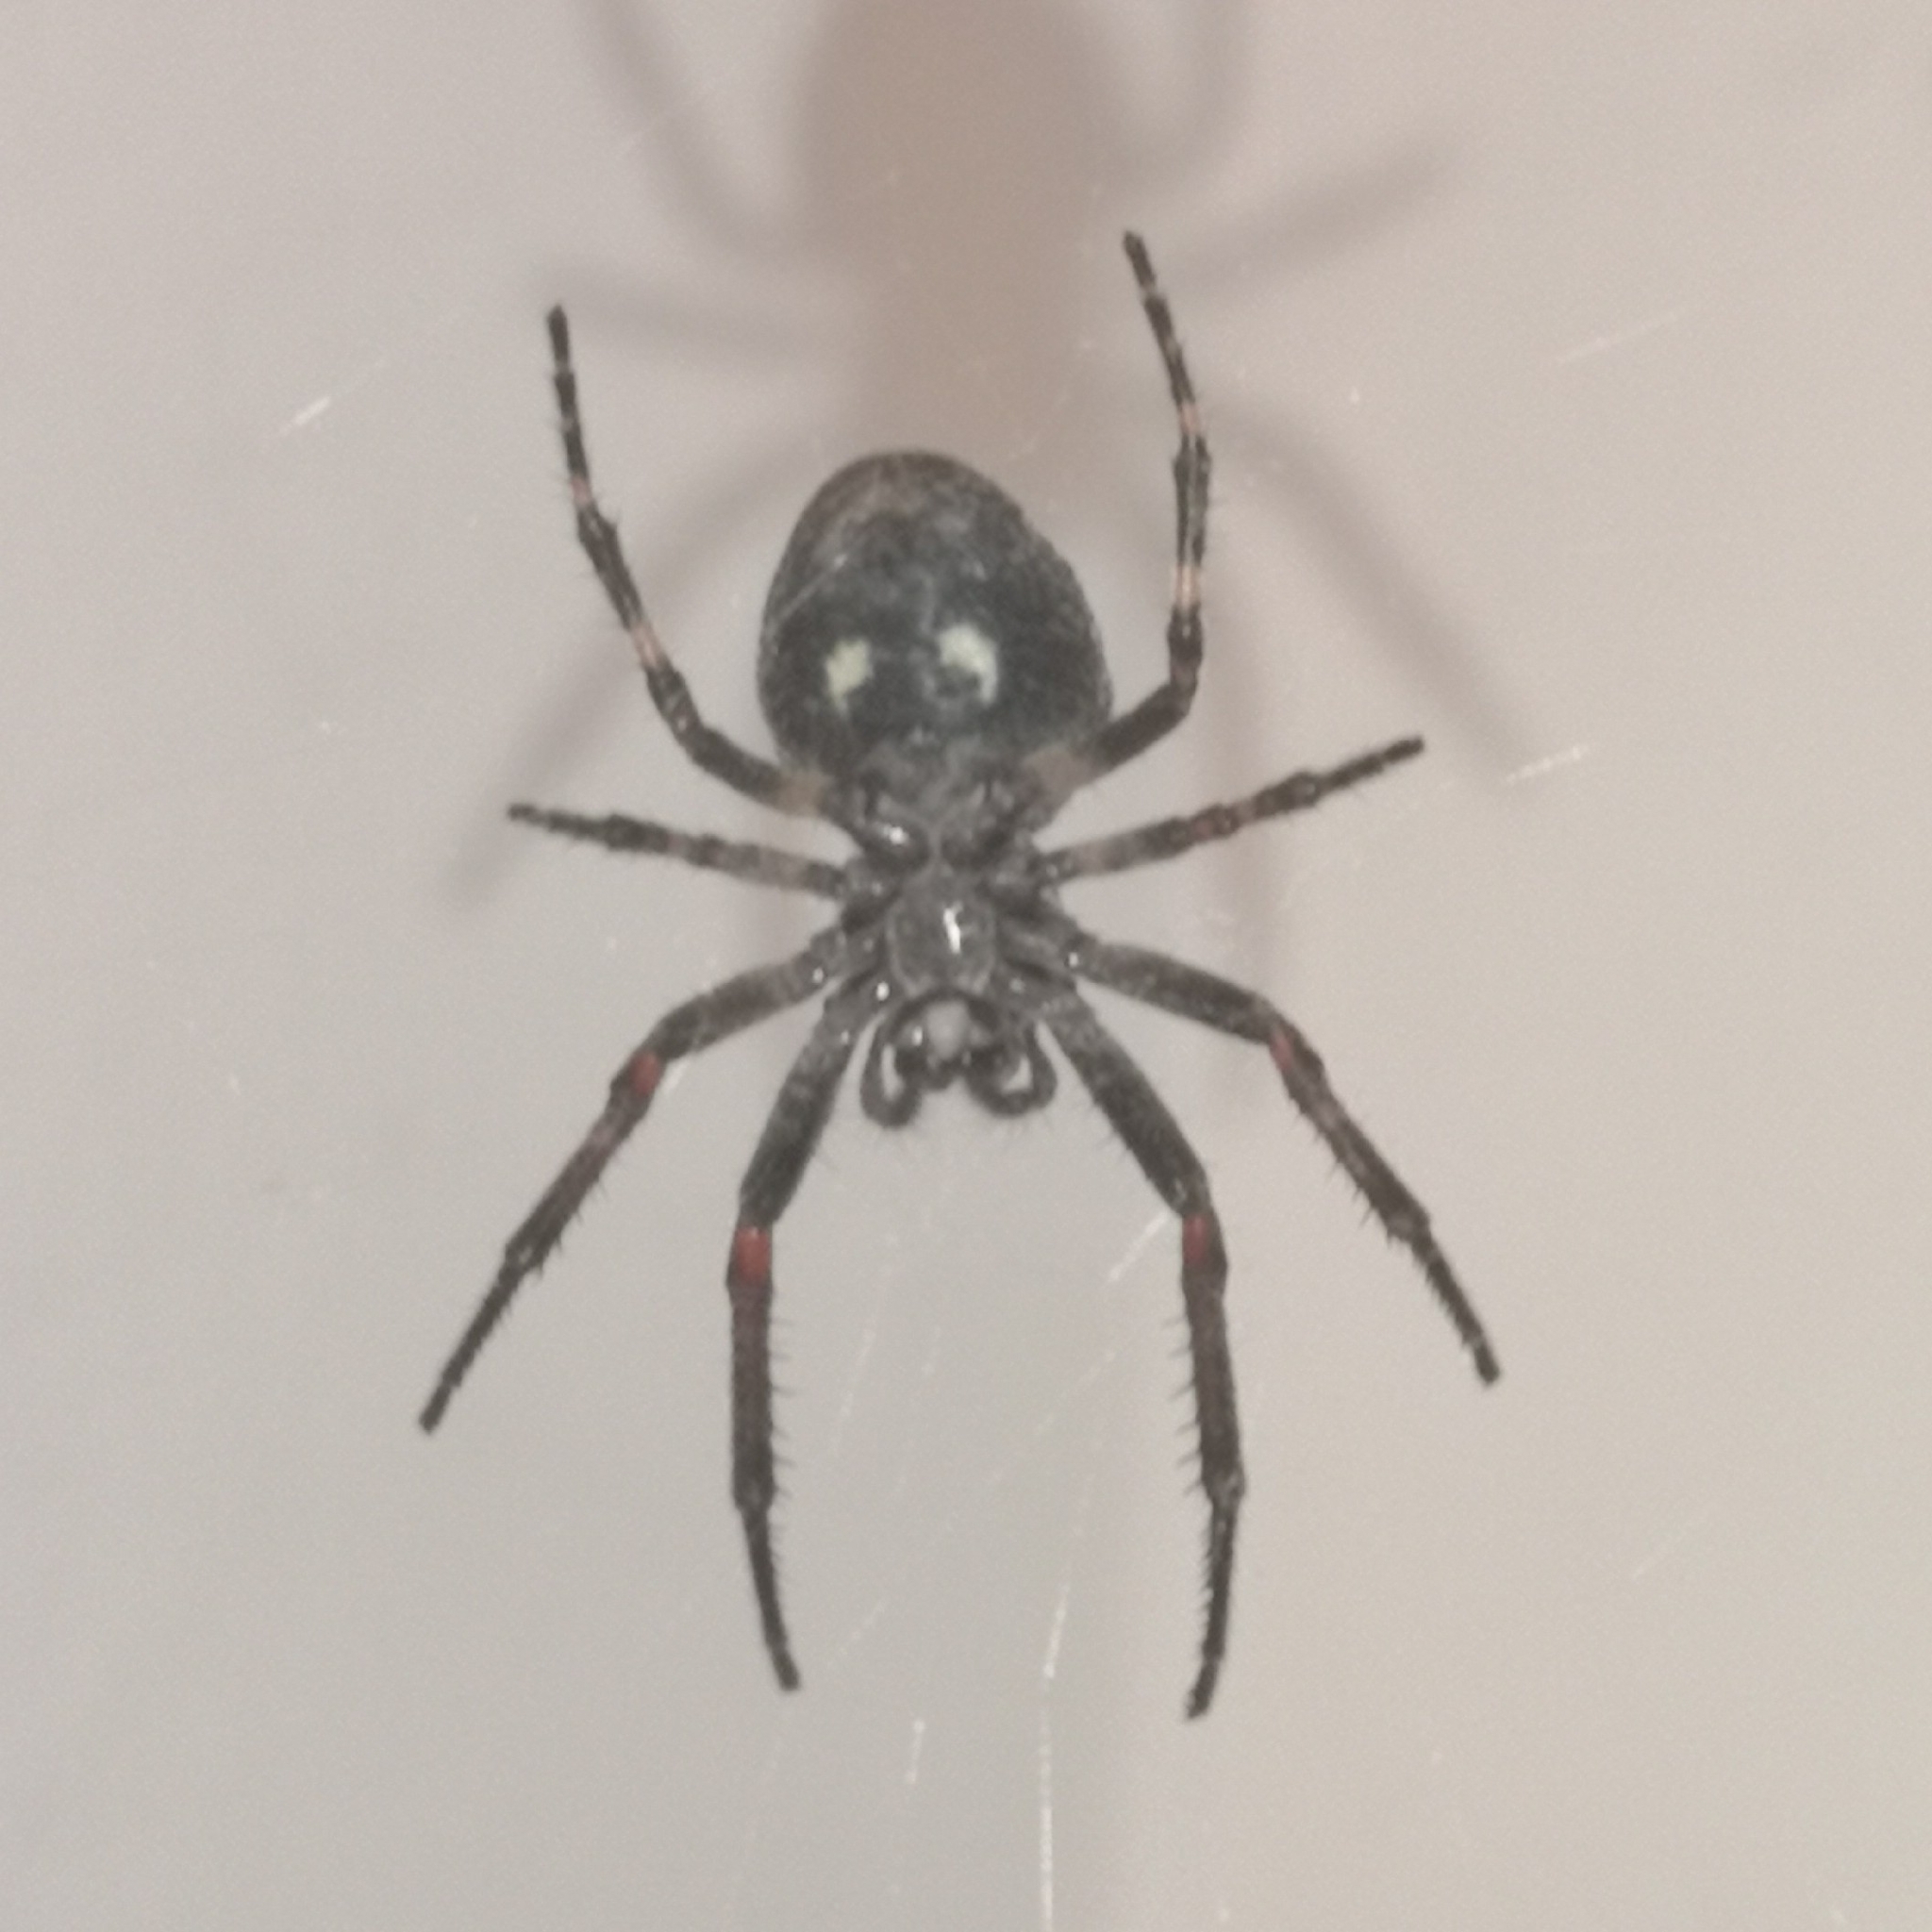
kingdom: Animalia
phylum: Arthropoda
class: Arachnida
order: Araneae
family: Araneidae
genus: Nuctenea
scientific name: Nuctenea umbratica
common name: Toad spider
